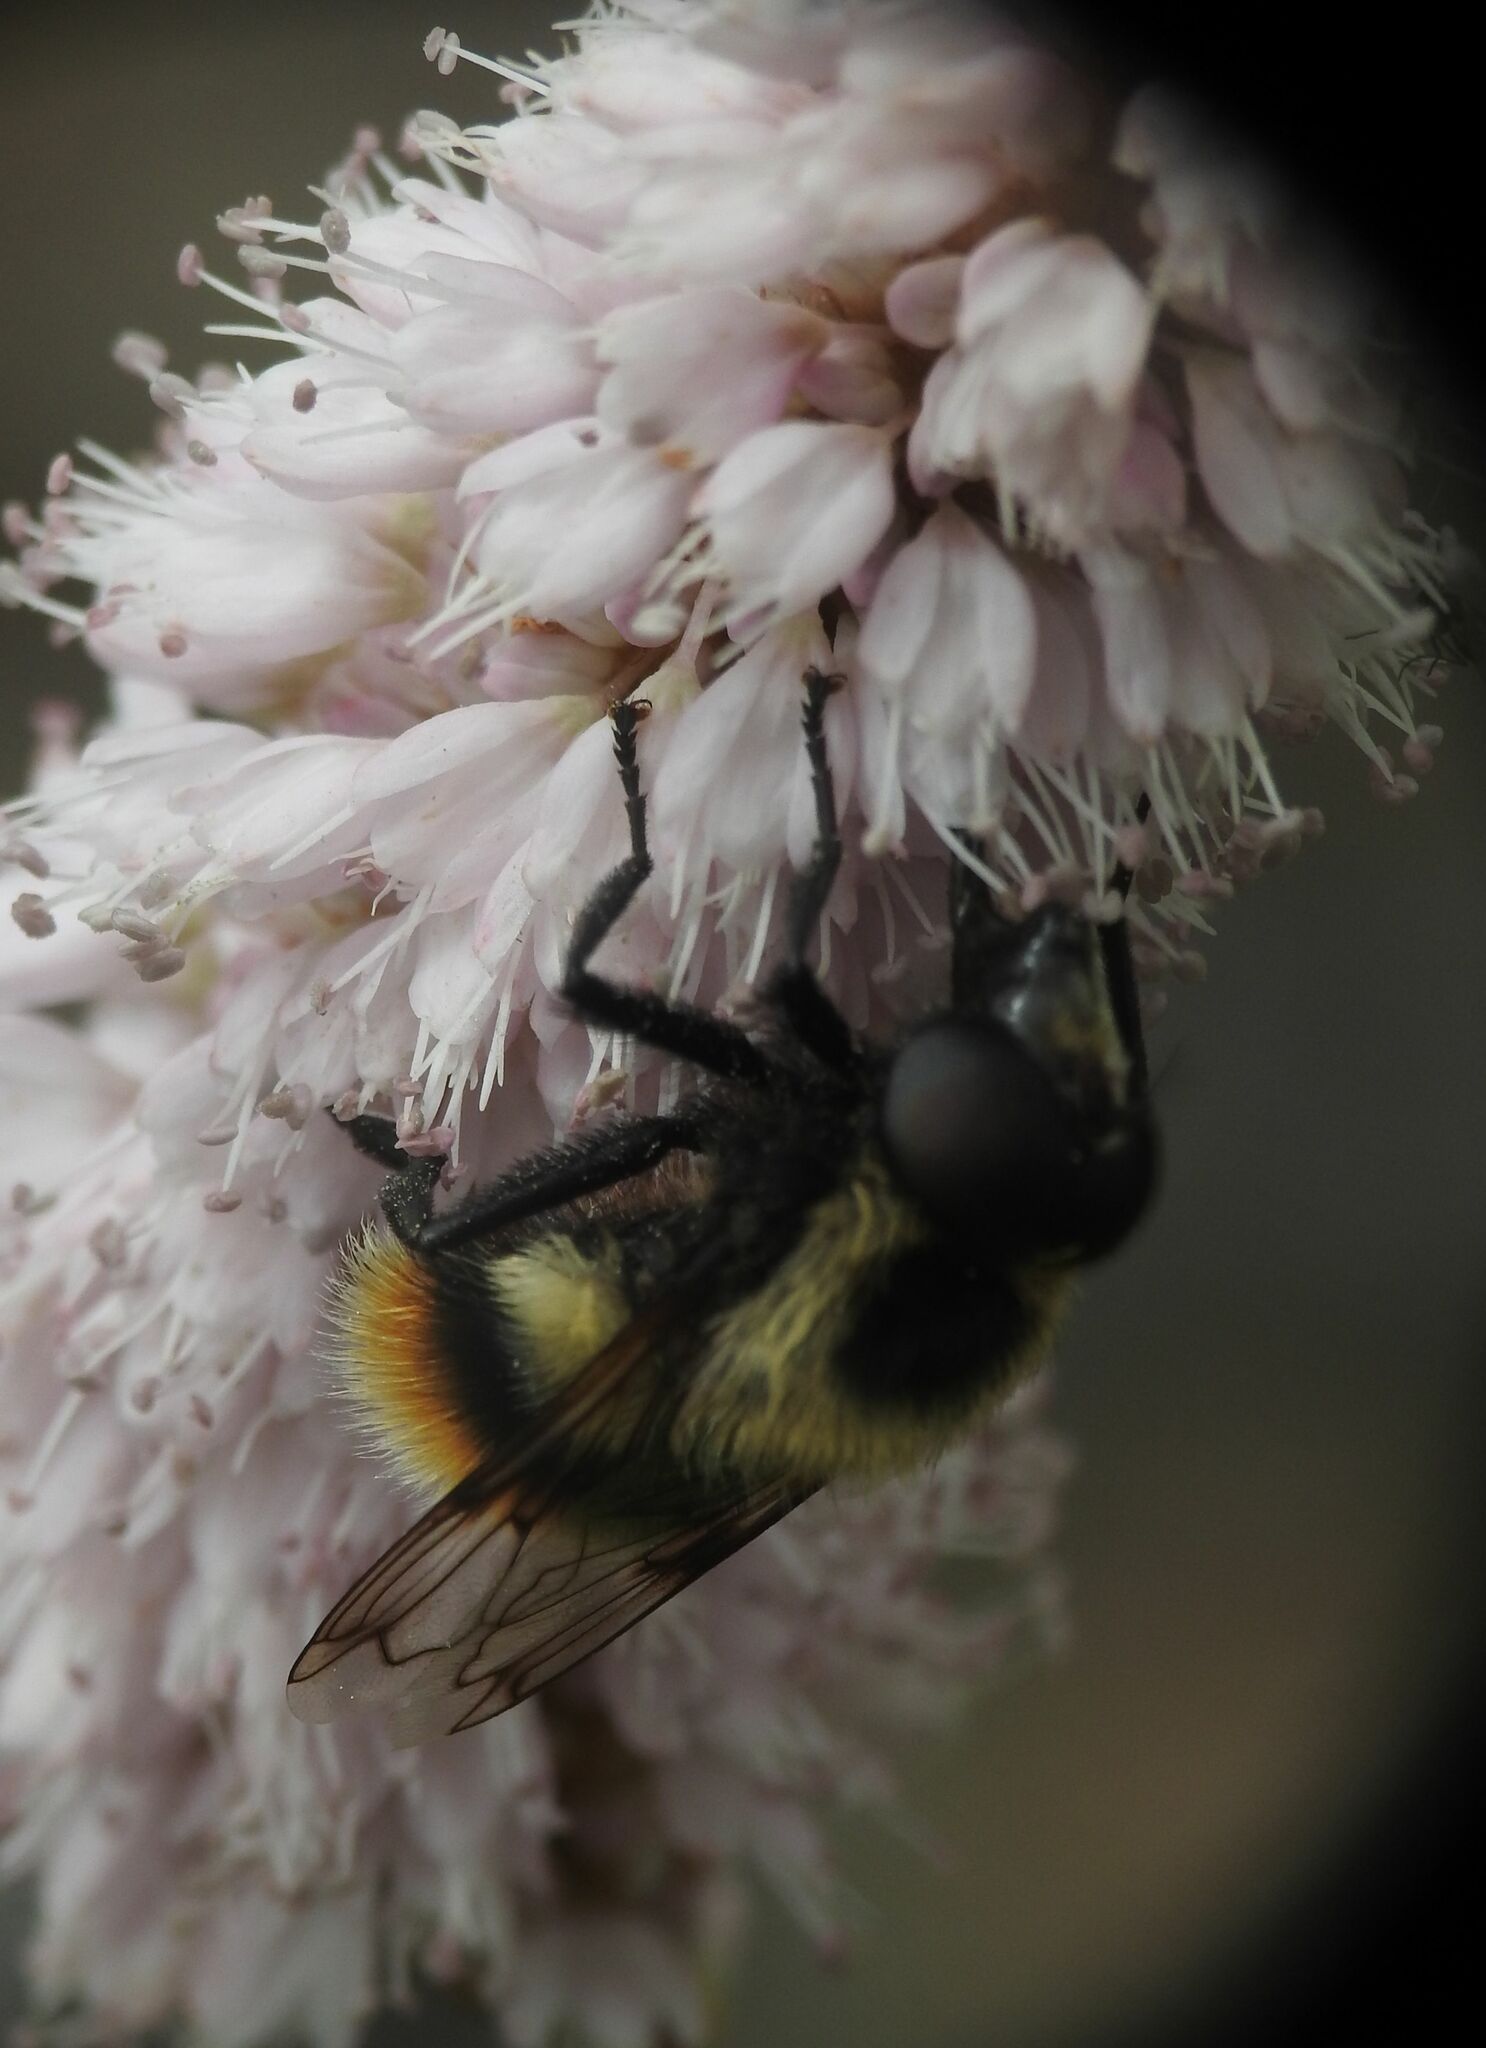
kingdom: Animalia
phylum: Arthropoda
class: Insecta
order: Diptera
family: Syrphidae
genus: Volucella
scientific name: Volucella bombylans
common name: Bumble bee hover fly
